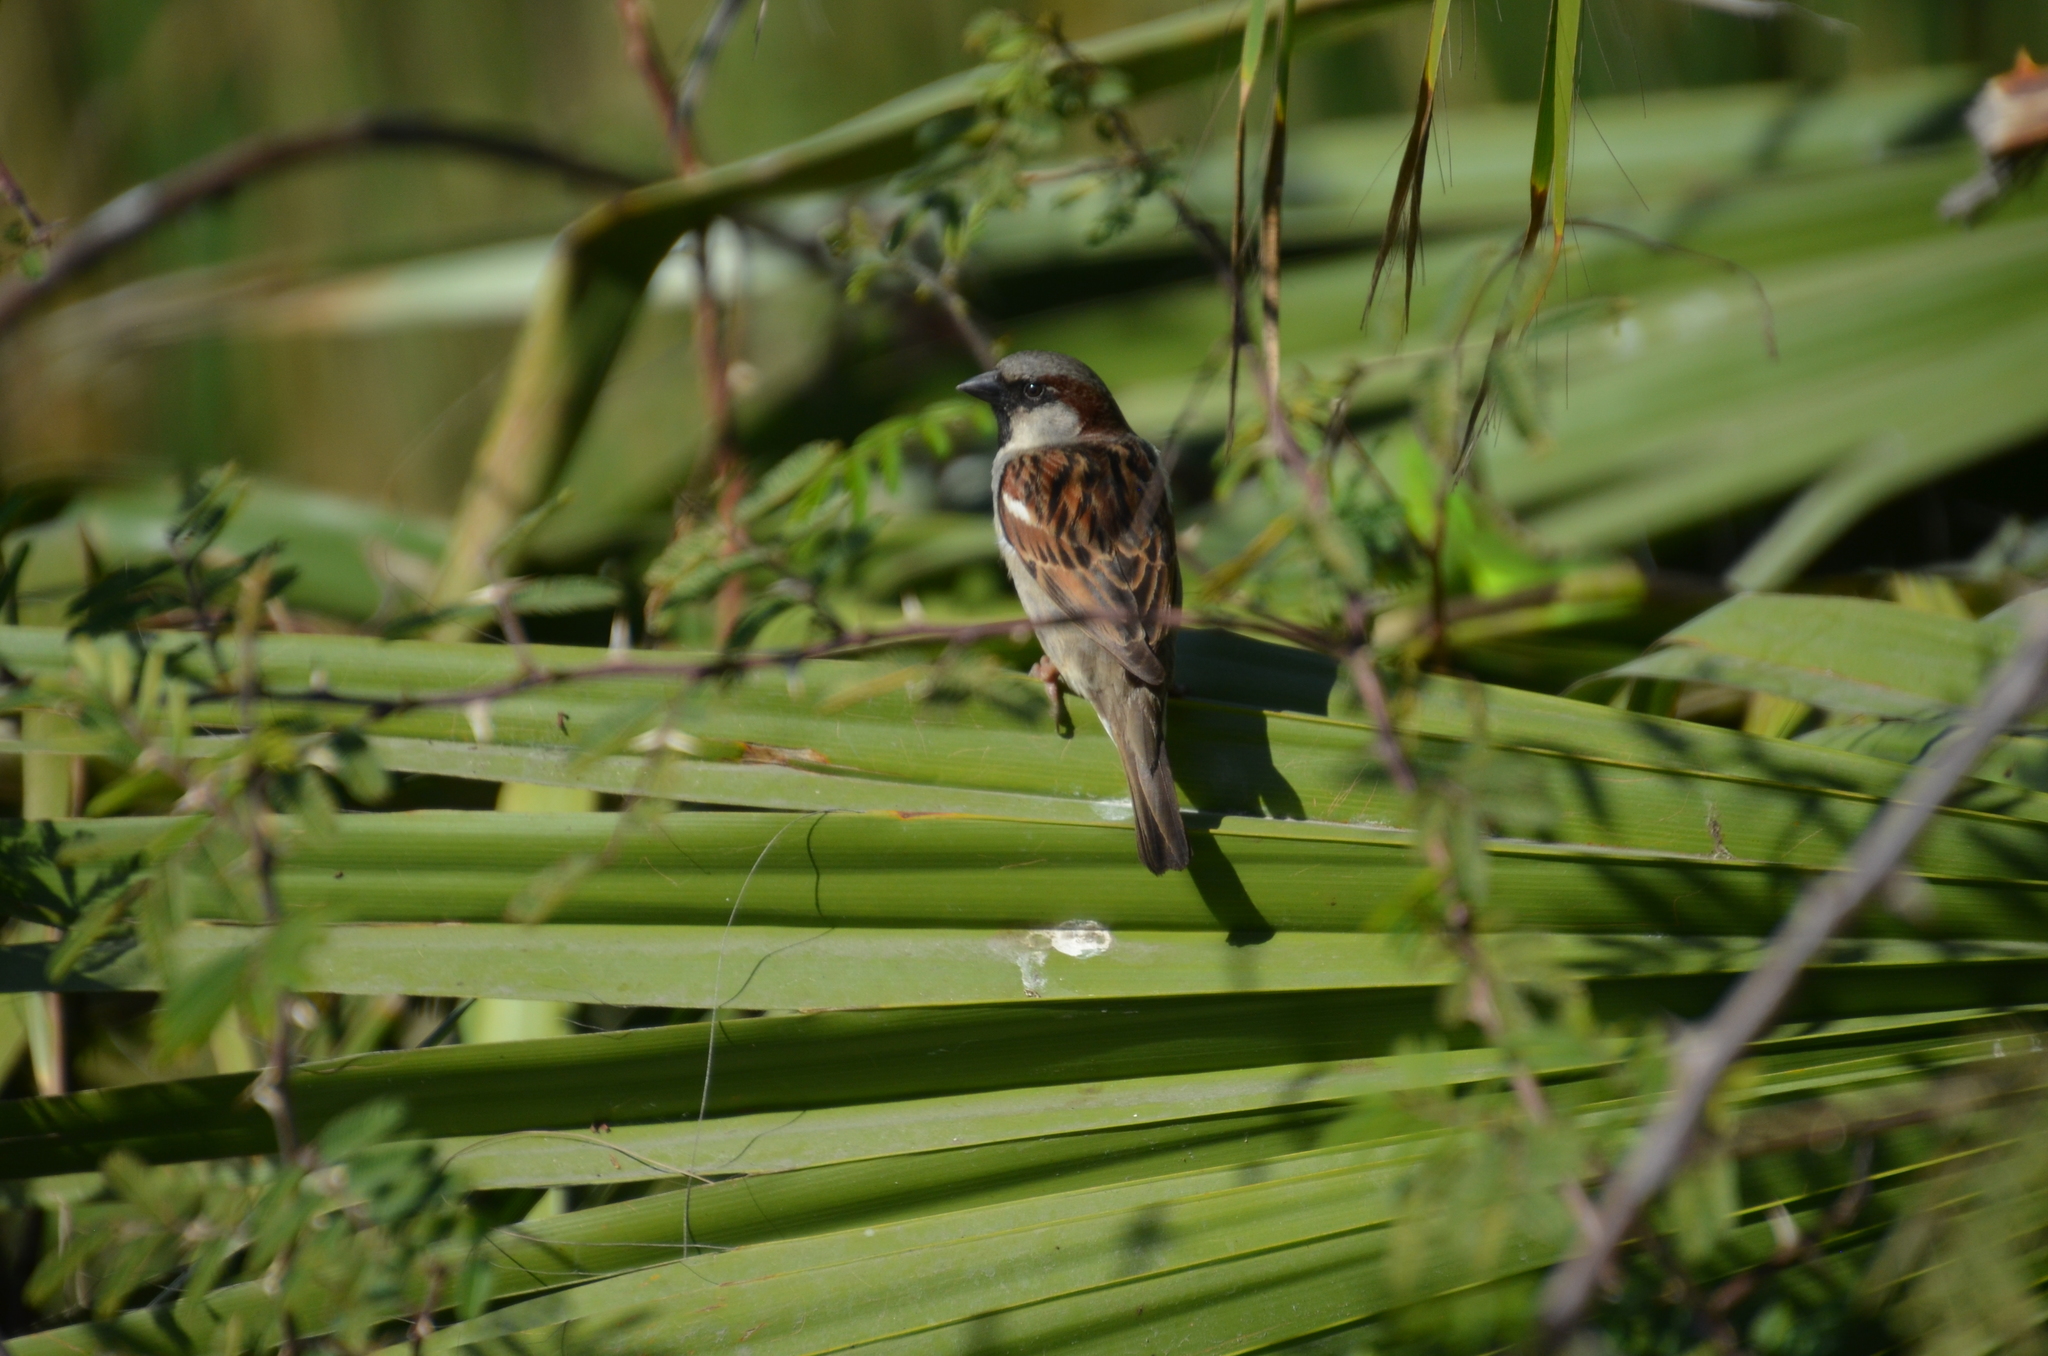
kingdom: Animalia
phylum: Chordata
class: Aves
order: Passeriformes
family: Passeridae
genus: Passer
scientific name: Passer domesticus
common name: House sparrow
